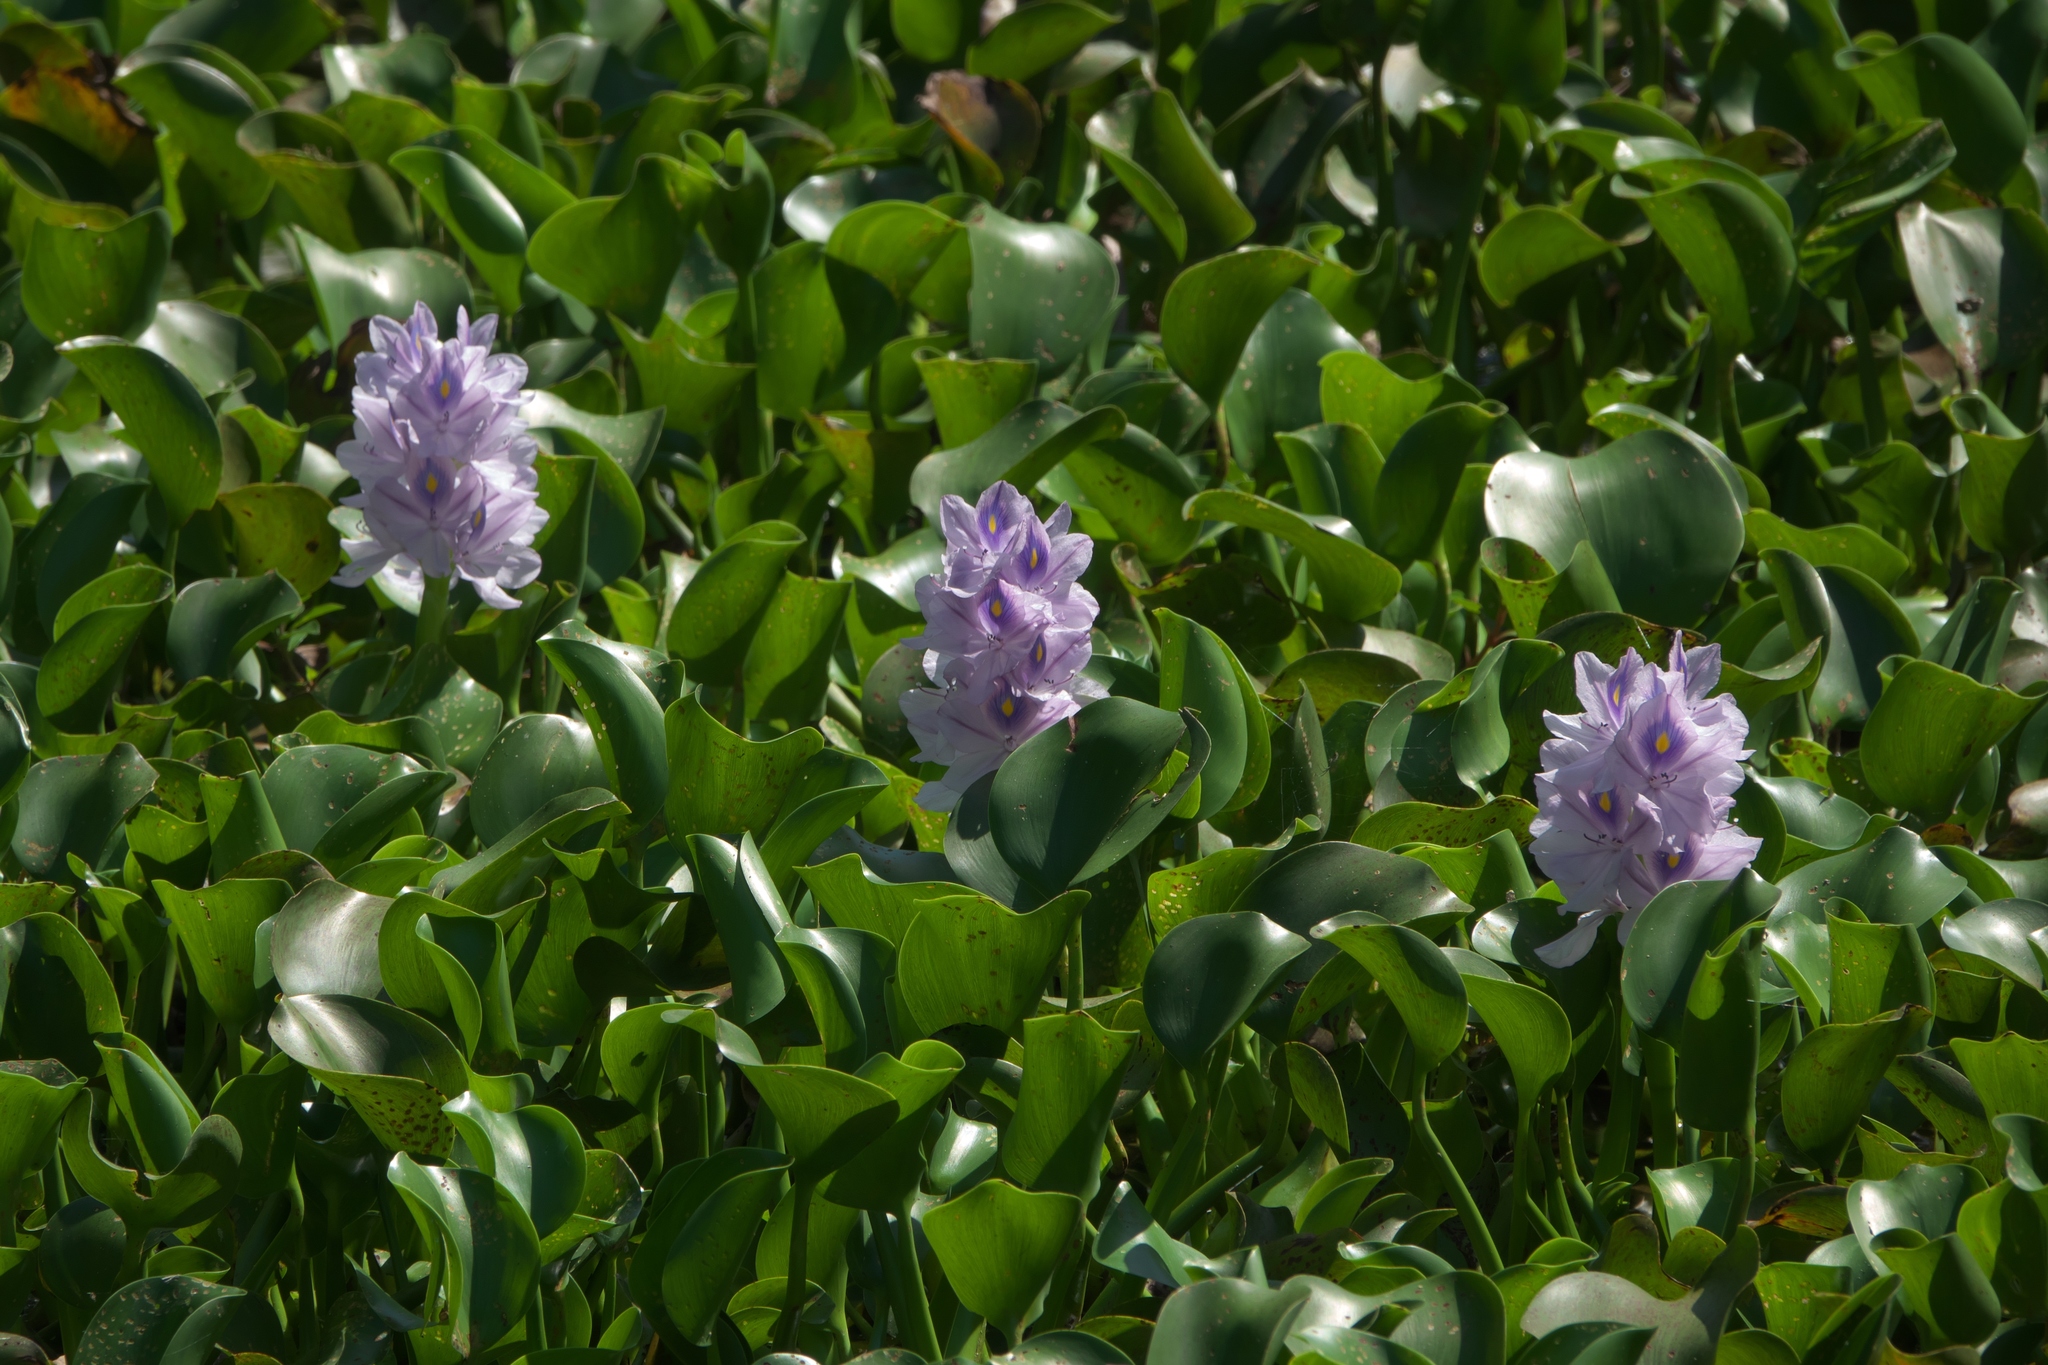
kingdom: Plantae
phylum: Tracheophyta
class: Liliopsida
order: Commelinales
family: Pontederiaceae
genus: Pontederia
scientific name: Pontederia crassipes
